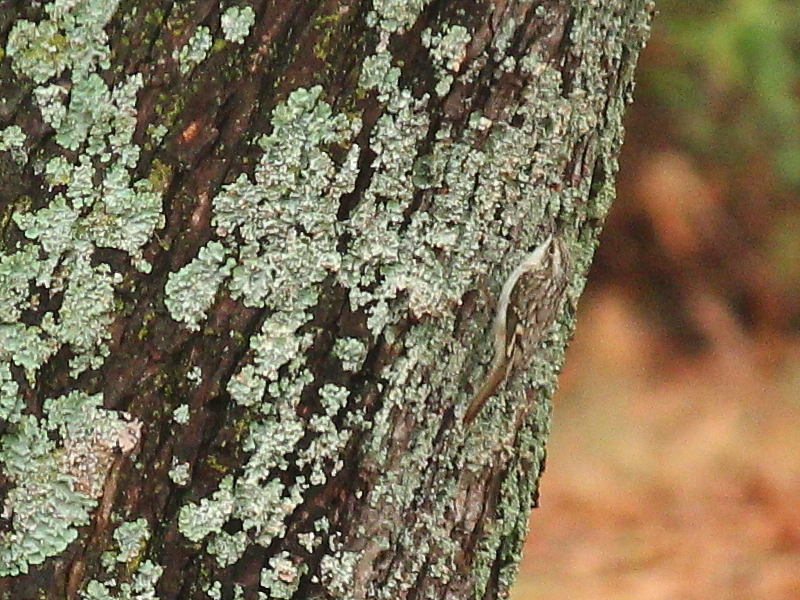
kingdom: Animalia
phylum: Chordata
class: Aves
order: Passeriformes
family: Certhiidae
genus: Certhia
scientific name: Certhia americana
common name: Brown creeper
